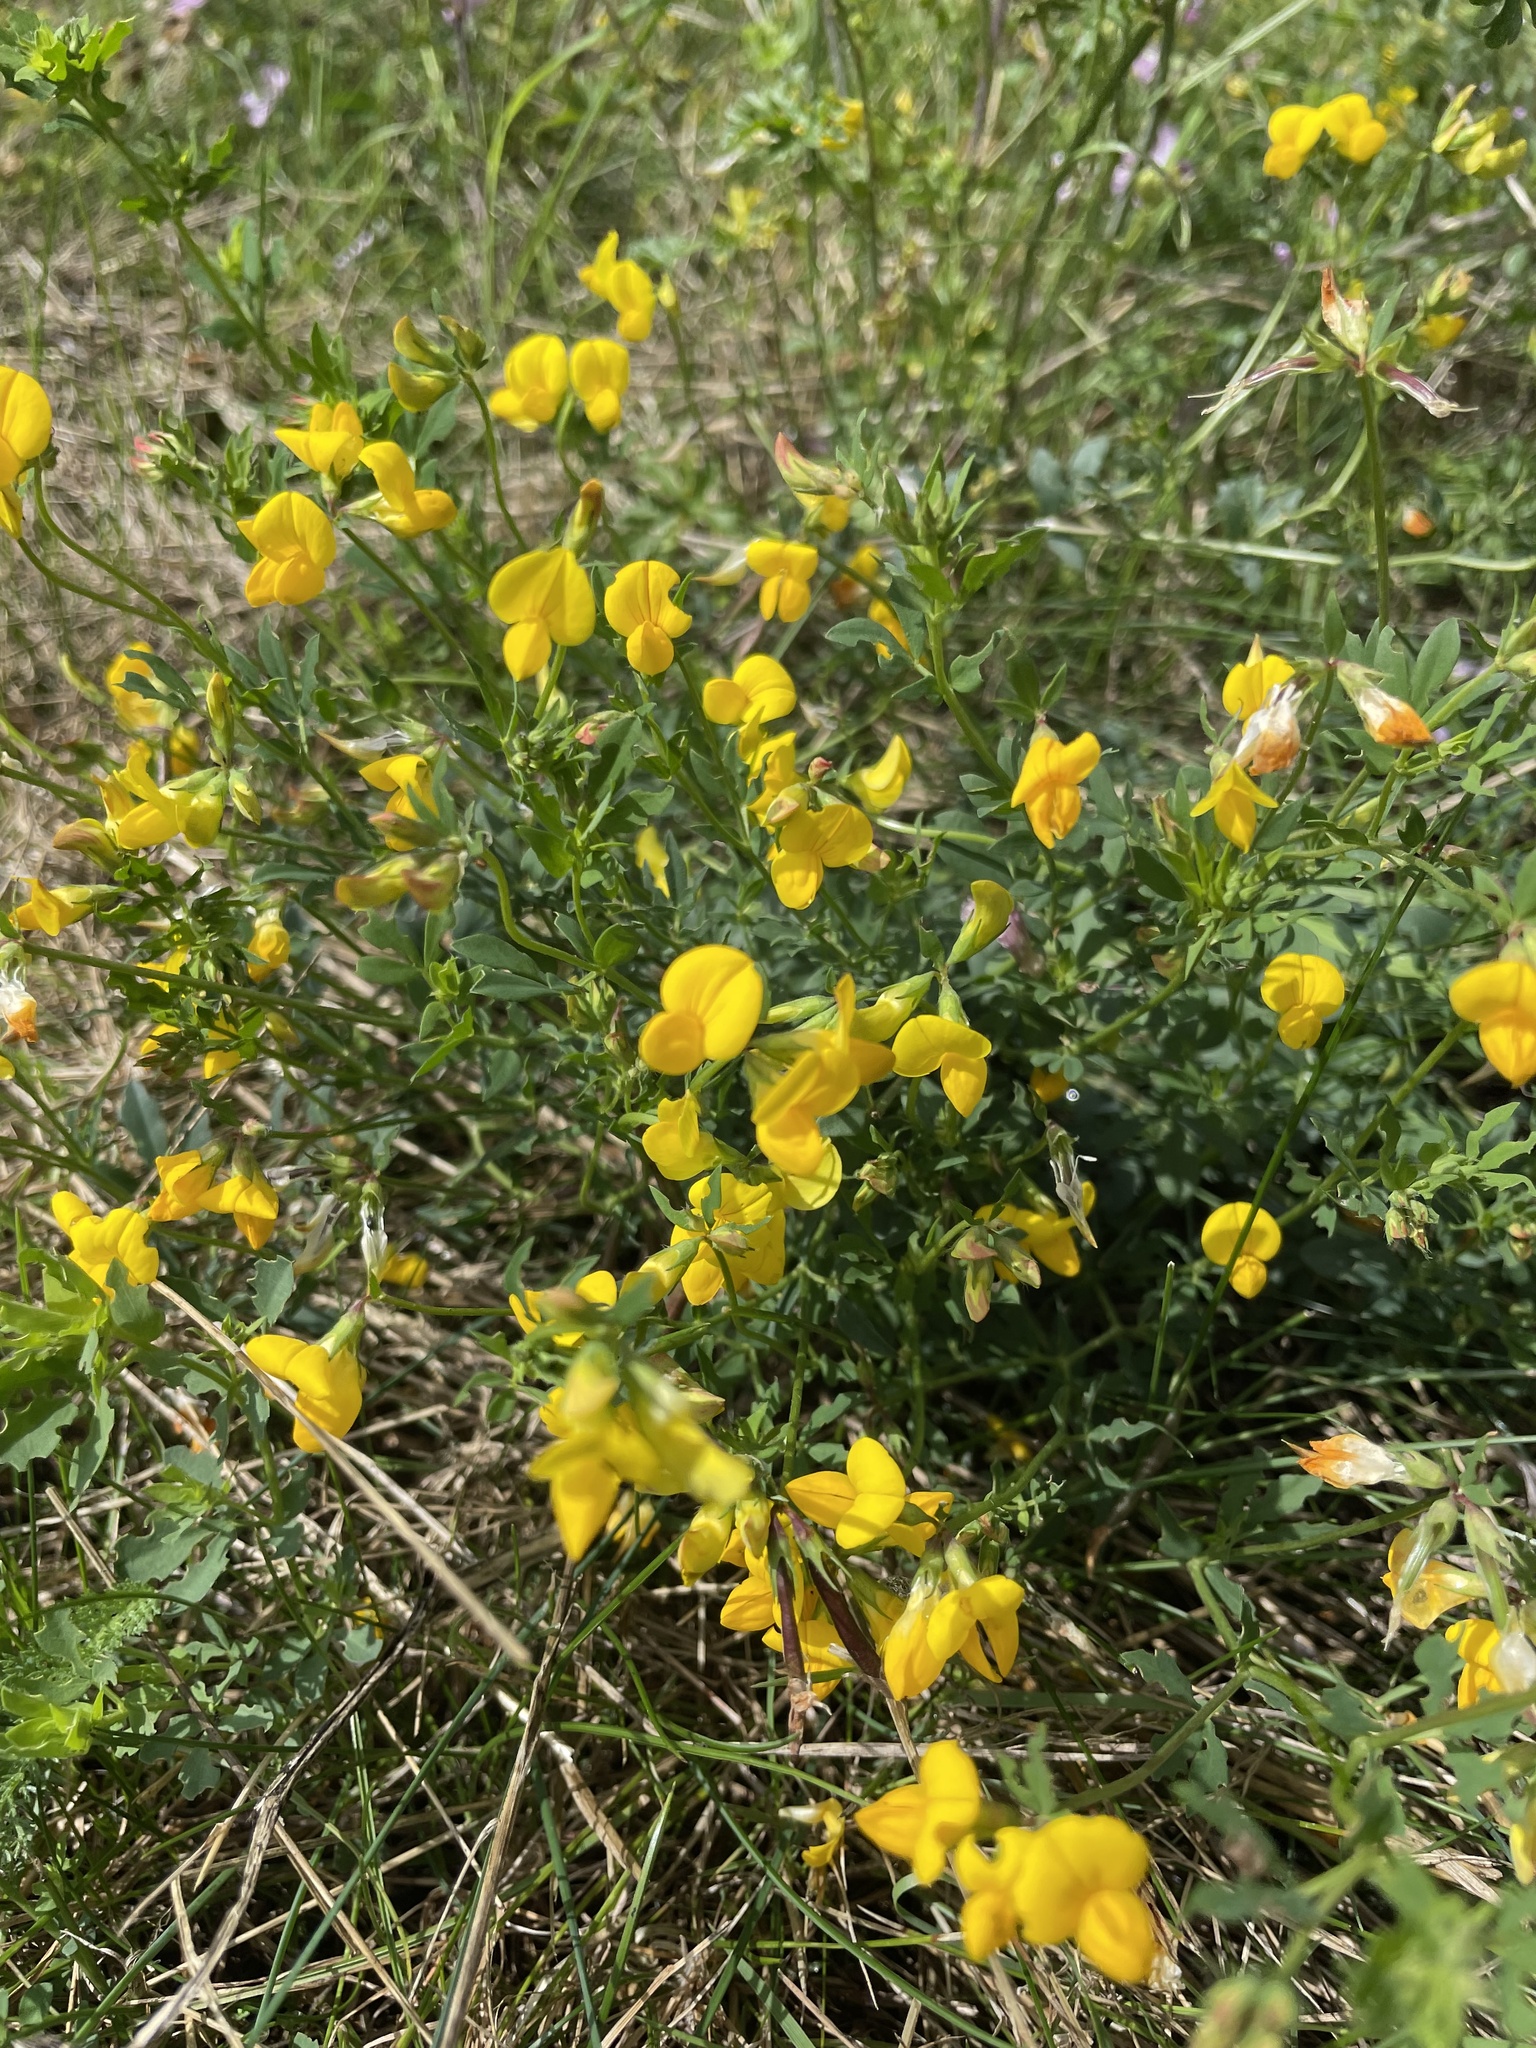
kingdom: Plantae
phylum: Tracheophyta
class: Magnoliopsida
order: Fabales
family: Fabaceae
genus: Lotus
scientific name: Lotus corniculatus
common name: Common bird's-foot-trefoil
